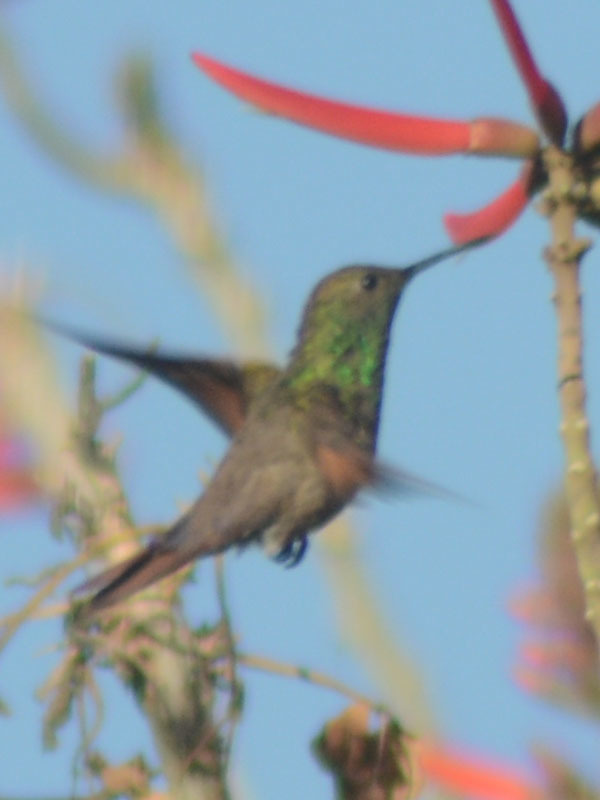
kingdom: Animalia
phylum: Chordata
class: Aves
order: Apodiformes
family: Trochilidae
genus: Saucerottia
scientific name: Saucerottia beryllina
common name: Berylline hummingbird
